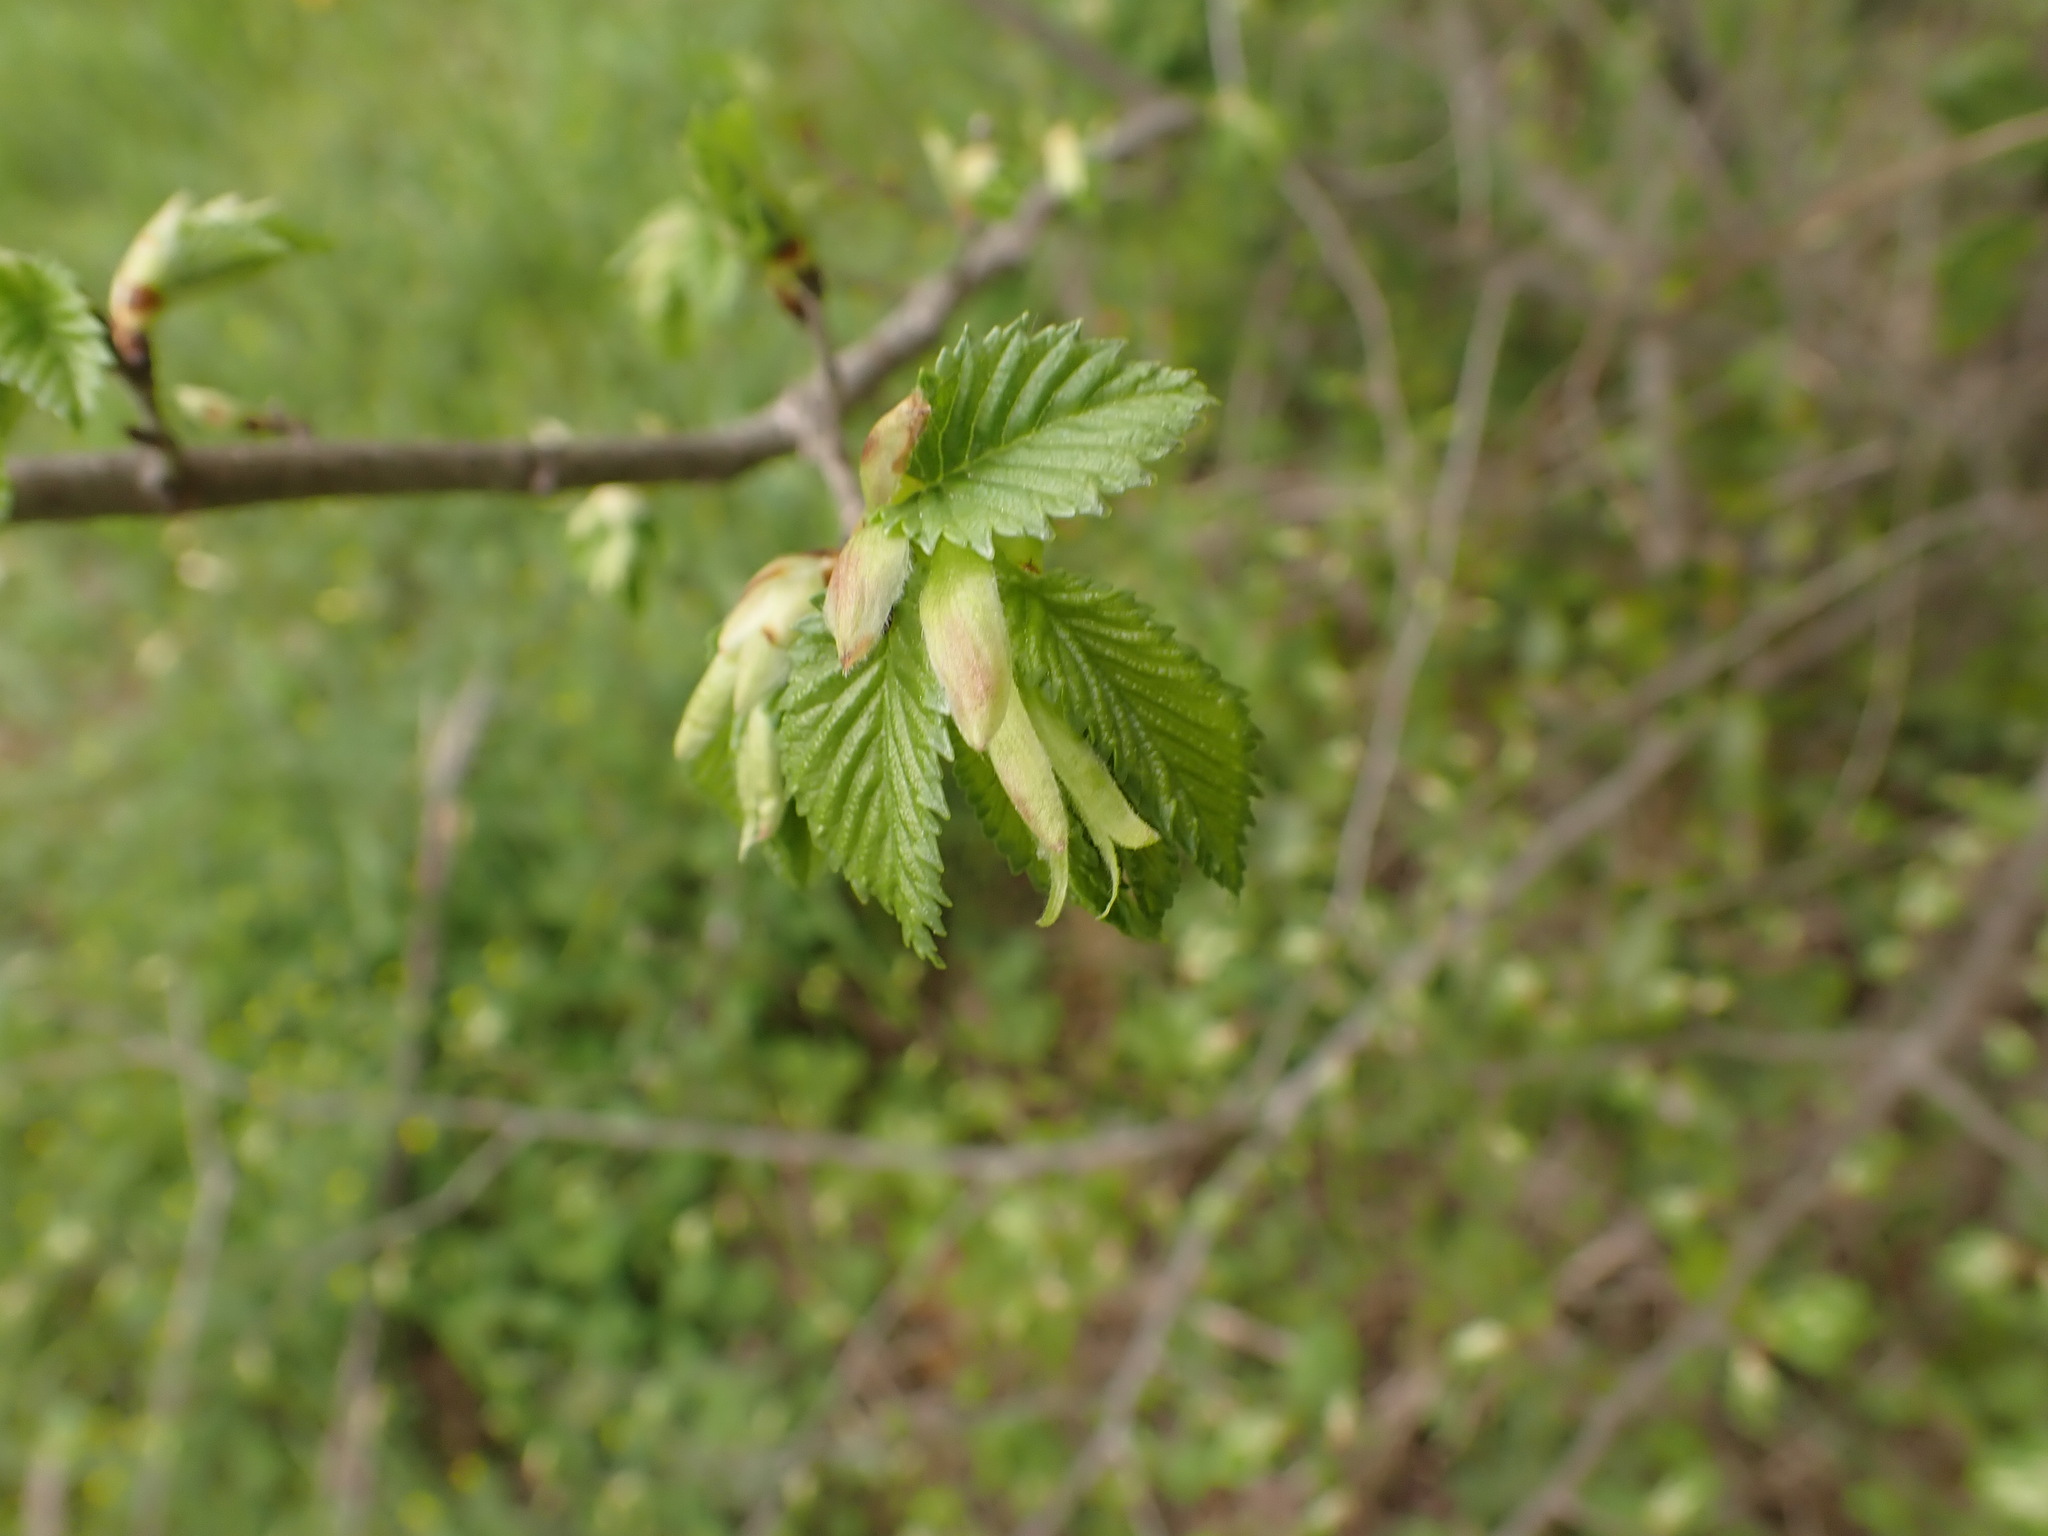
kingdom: Plantae
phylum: Tracheophyta
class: Magnoliopsida
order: Rosales
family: Ulmaceae
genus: Ulmus
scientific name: Ulmus minor
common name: Small-leaved elm
